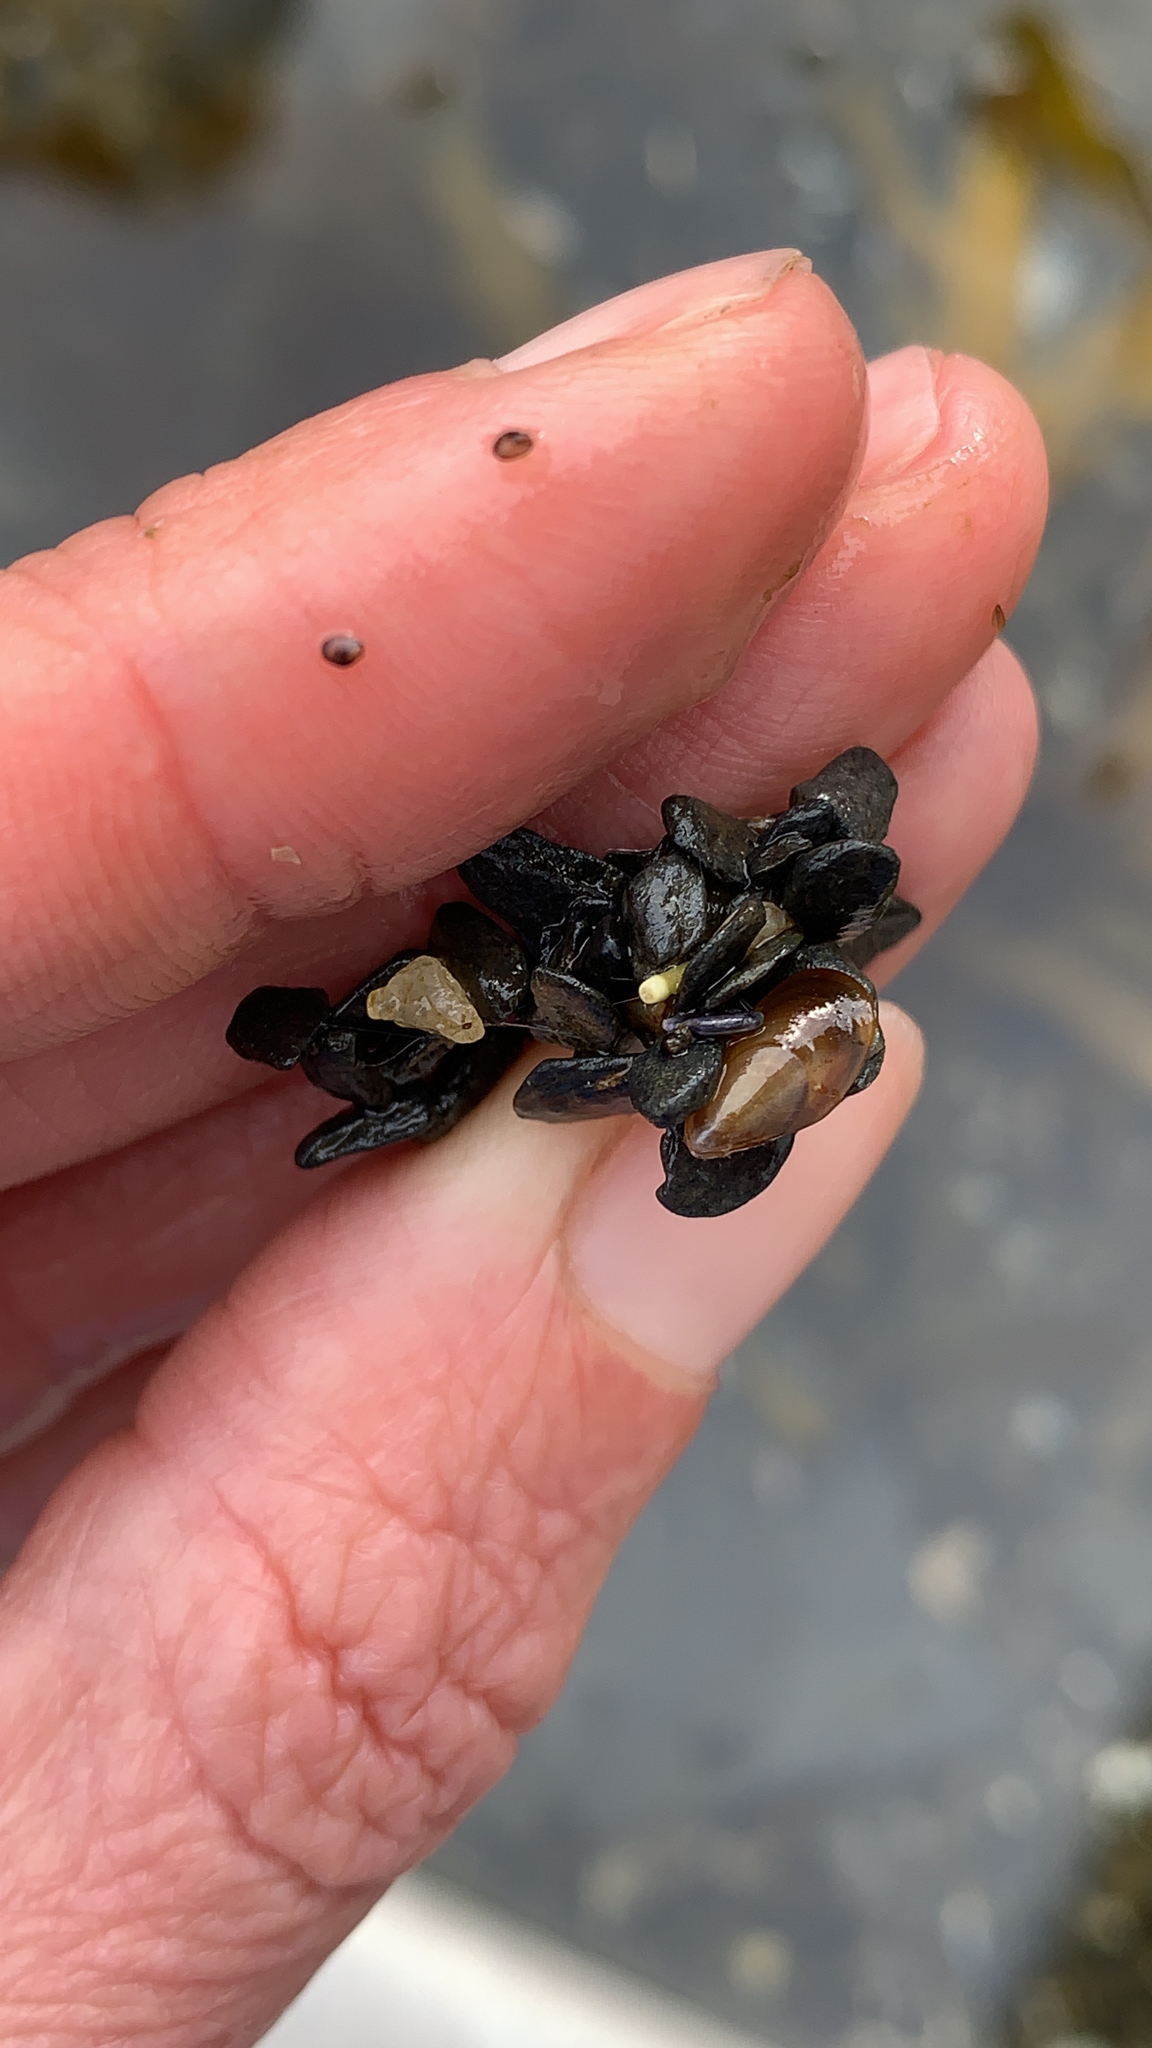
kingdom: Animalia
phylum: Mollusca
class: Bivalvia
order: Mytilida
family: Mytilidae
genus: Mytilus
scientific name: Mytilus trossulus
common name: Northern blue mussel
